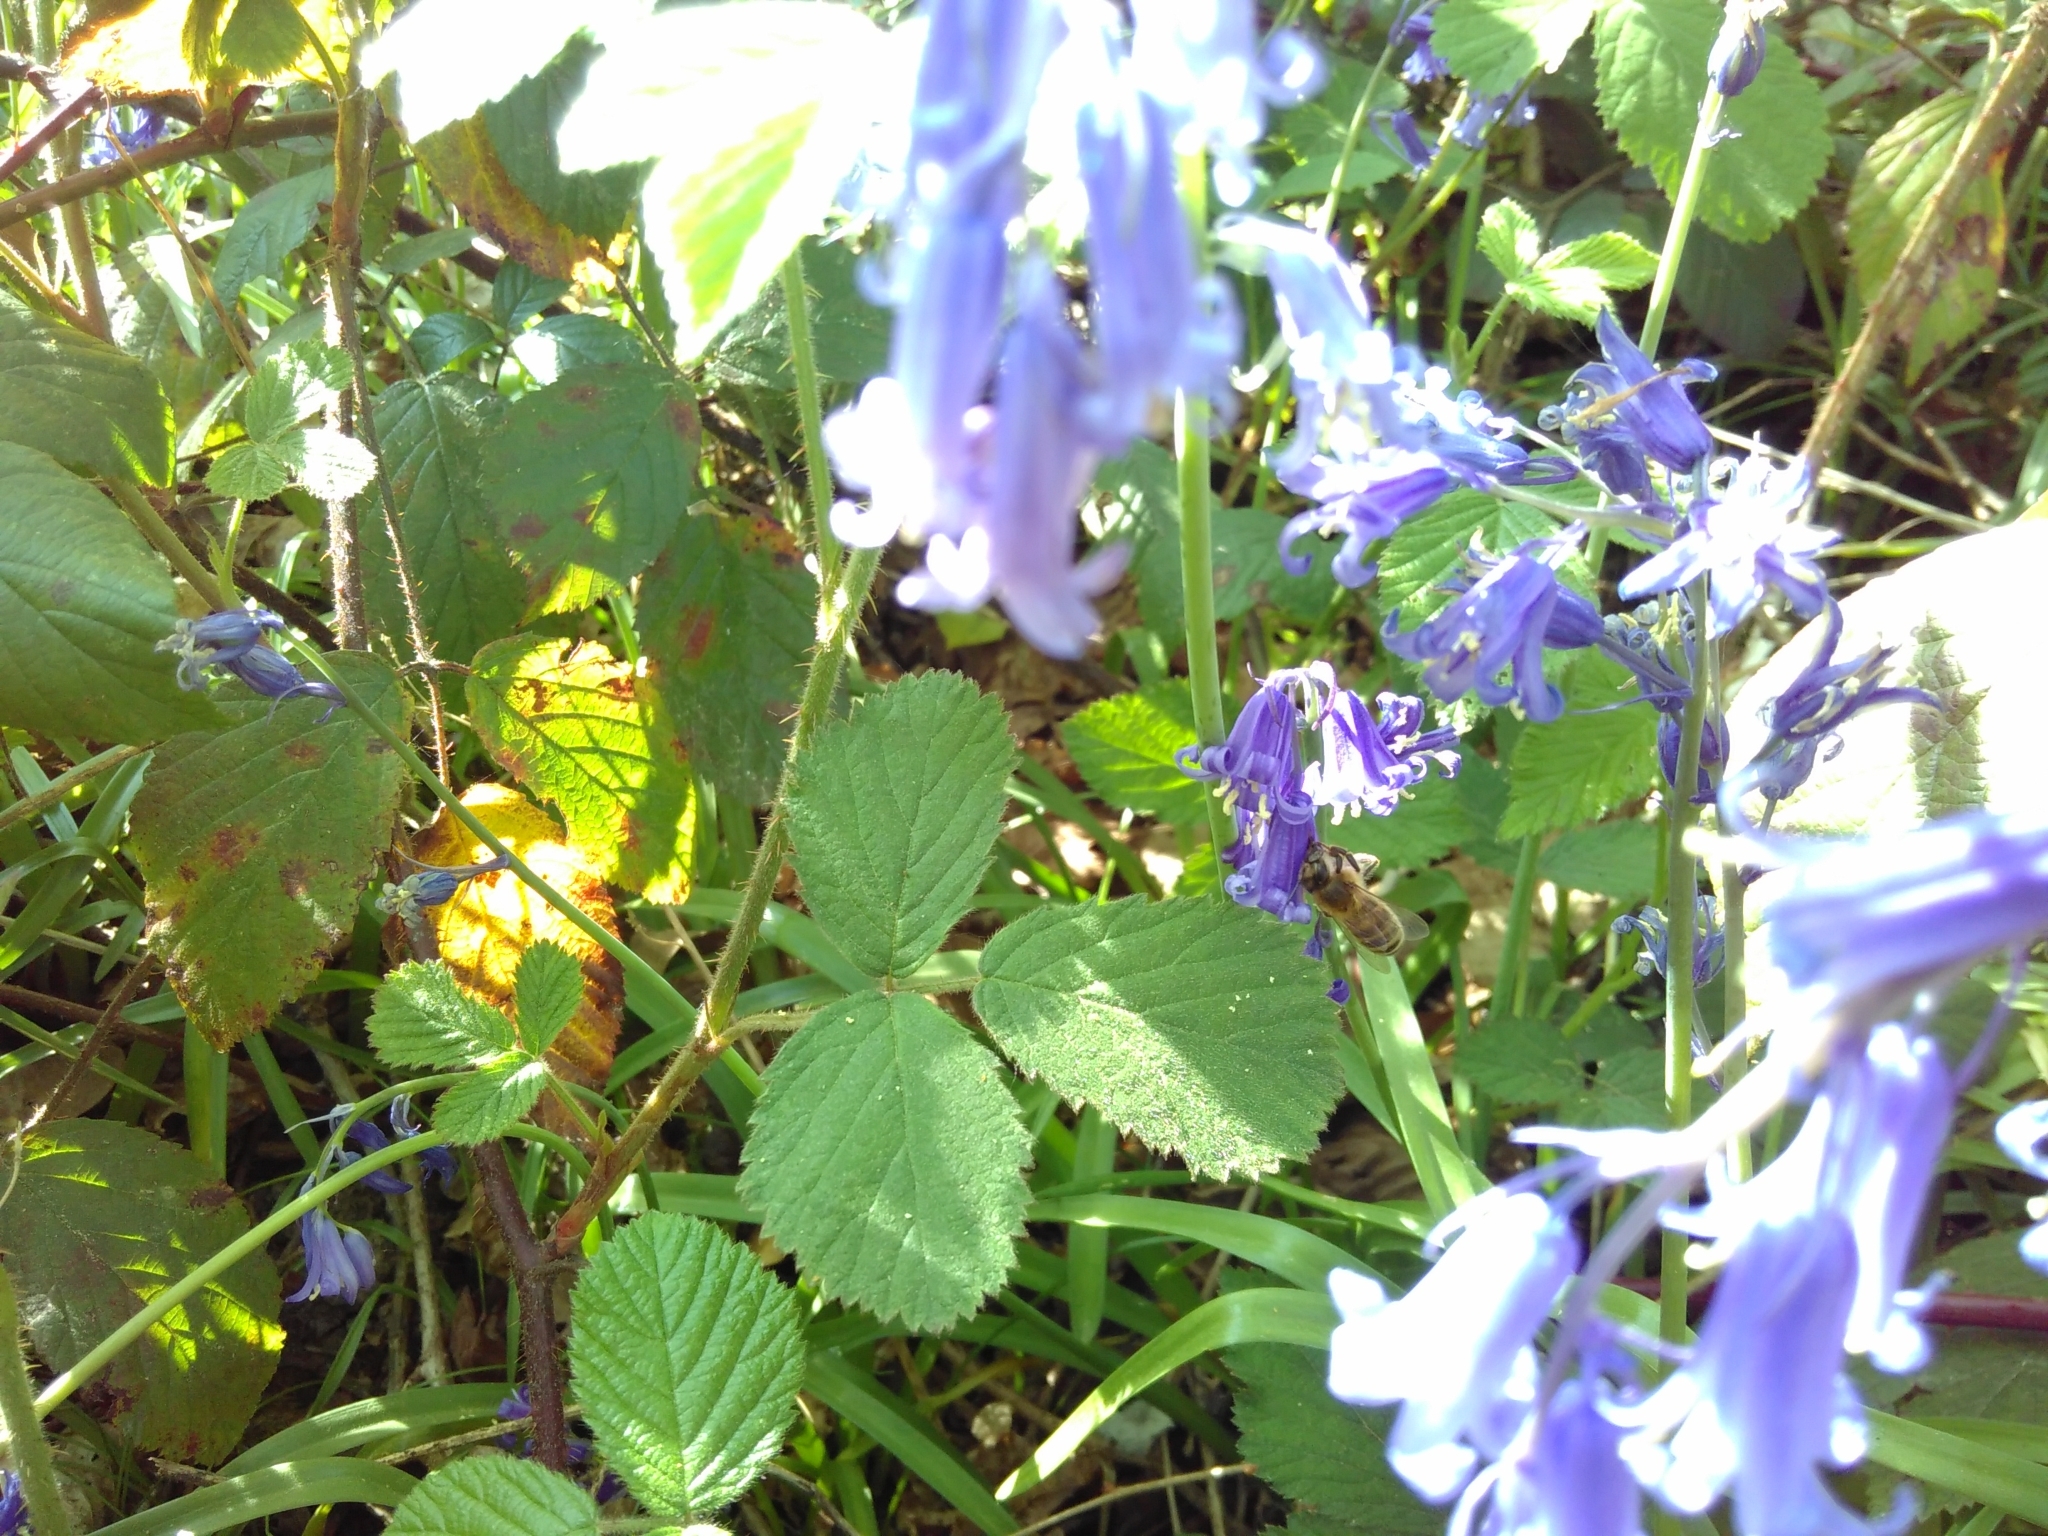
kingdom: Animalia
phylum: Arthropoda
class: Insecta
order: Hymenoptera
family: Apidae
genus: Apis
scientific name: Apis mellifera
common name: Honey bee
